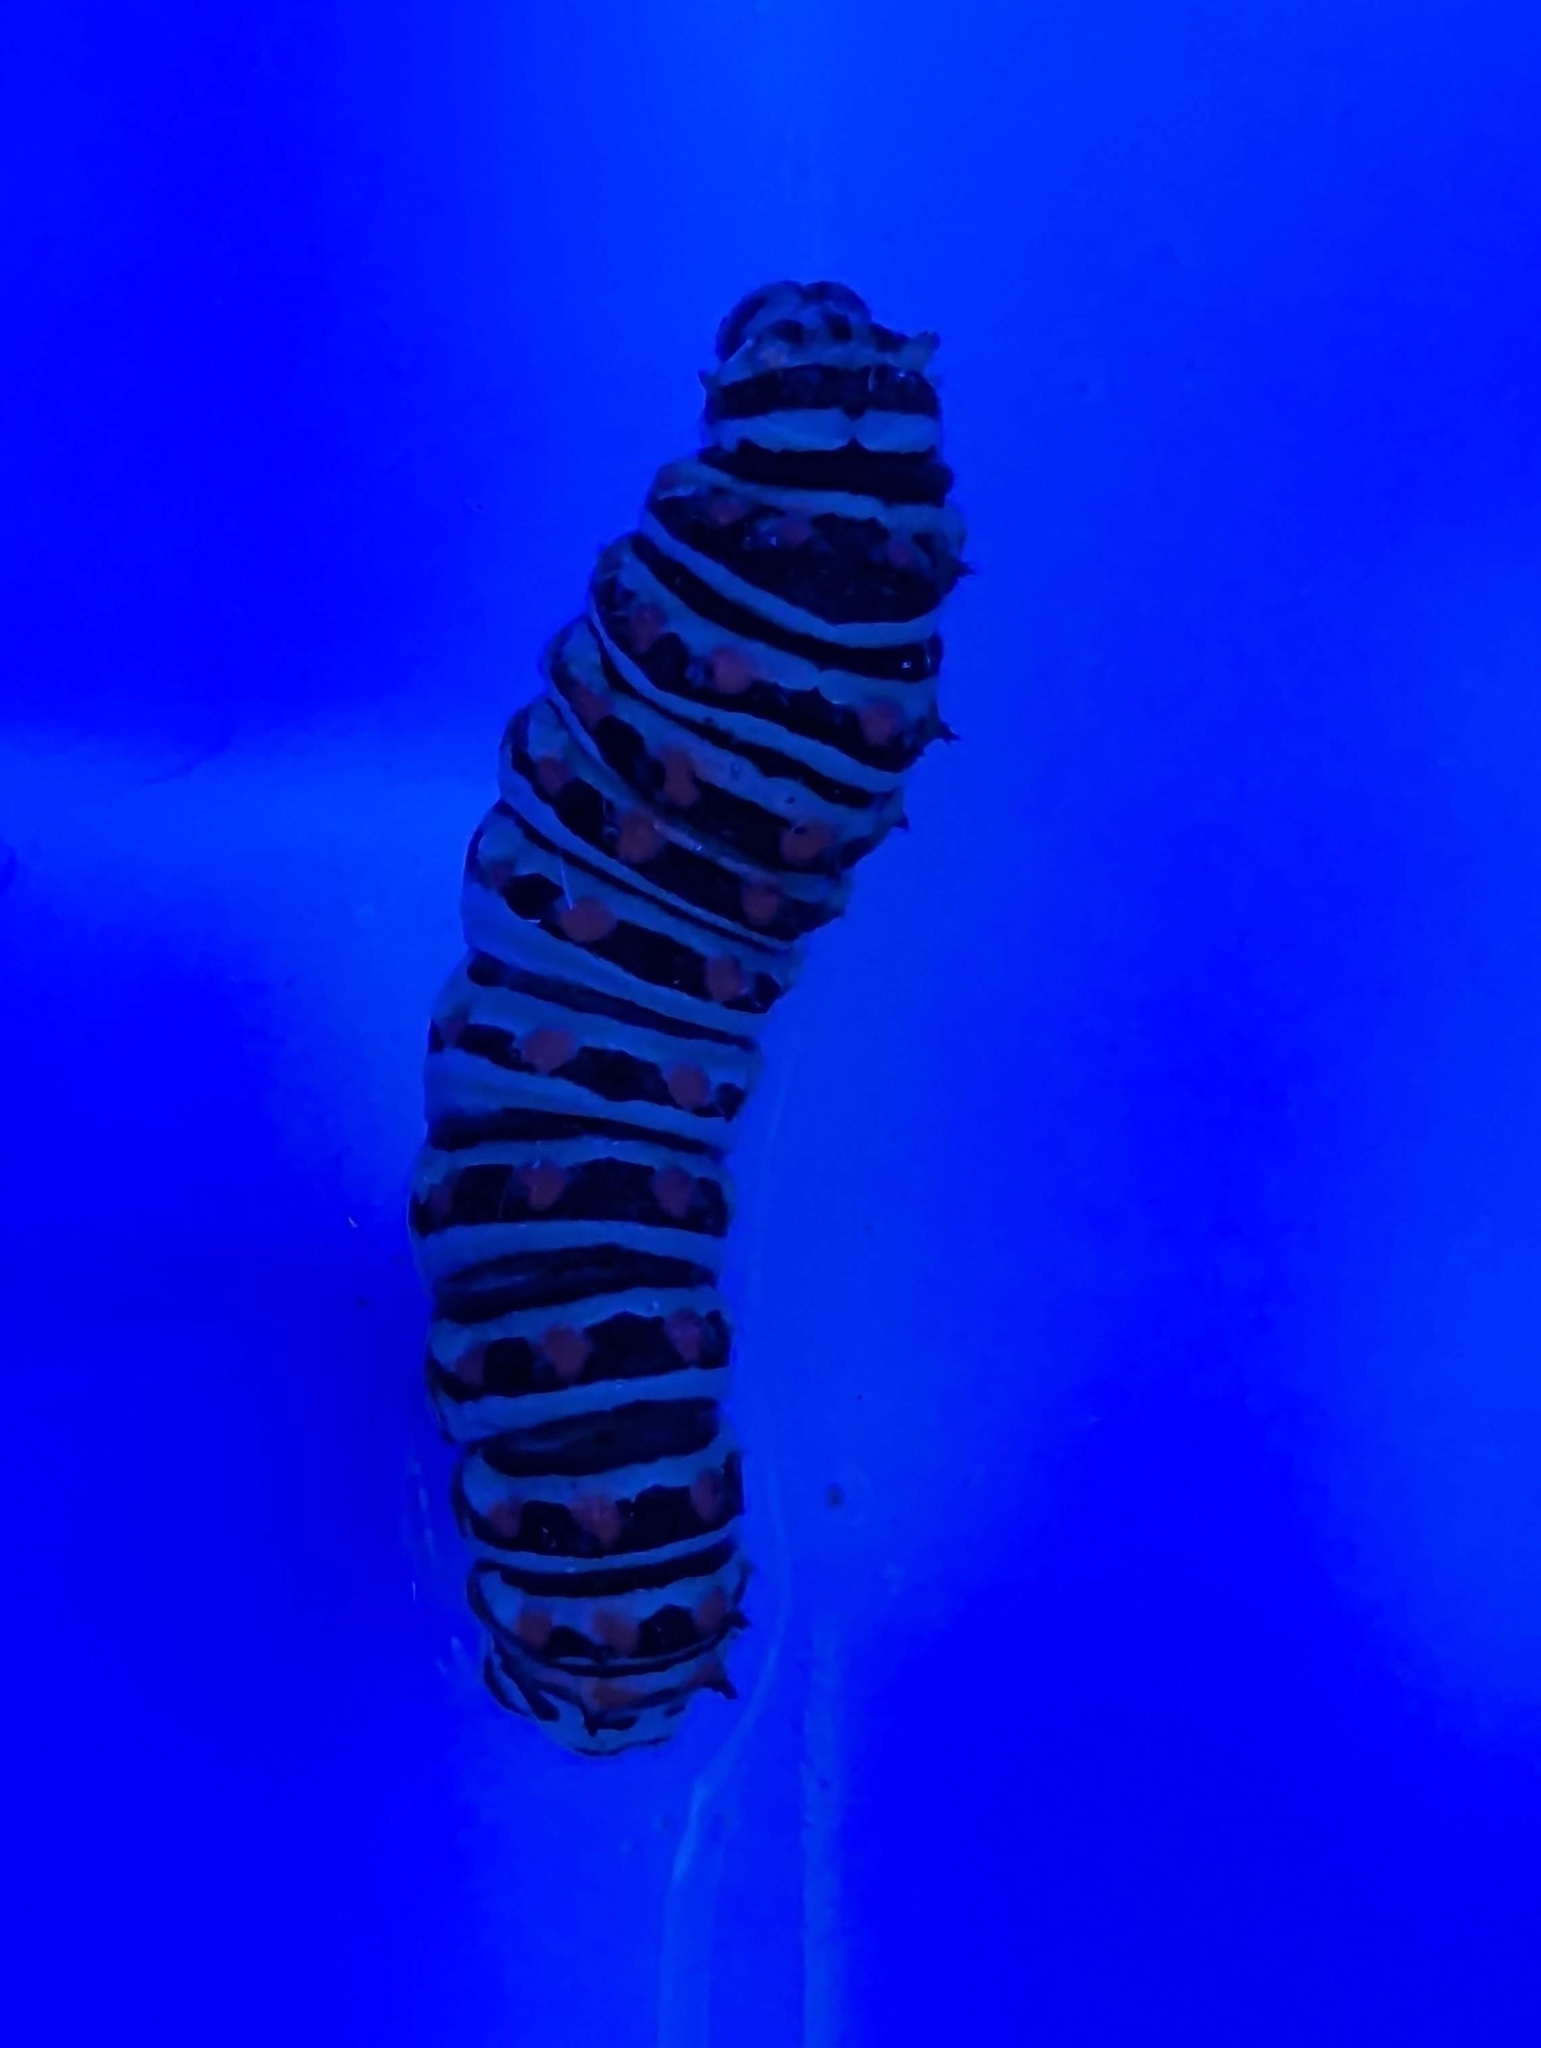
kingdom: Animalia
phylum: Arthropoda
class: Insecta
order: Lepidoptera
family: Papilionidae
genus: Papilio
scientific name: Papilio polyxenes
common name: Black swallowtail
